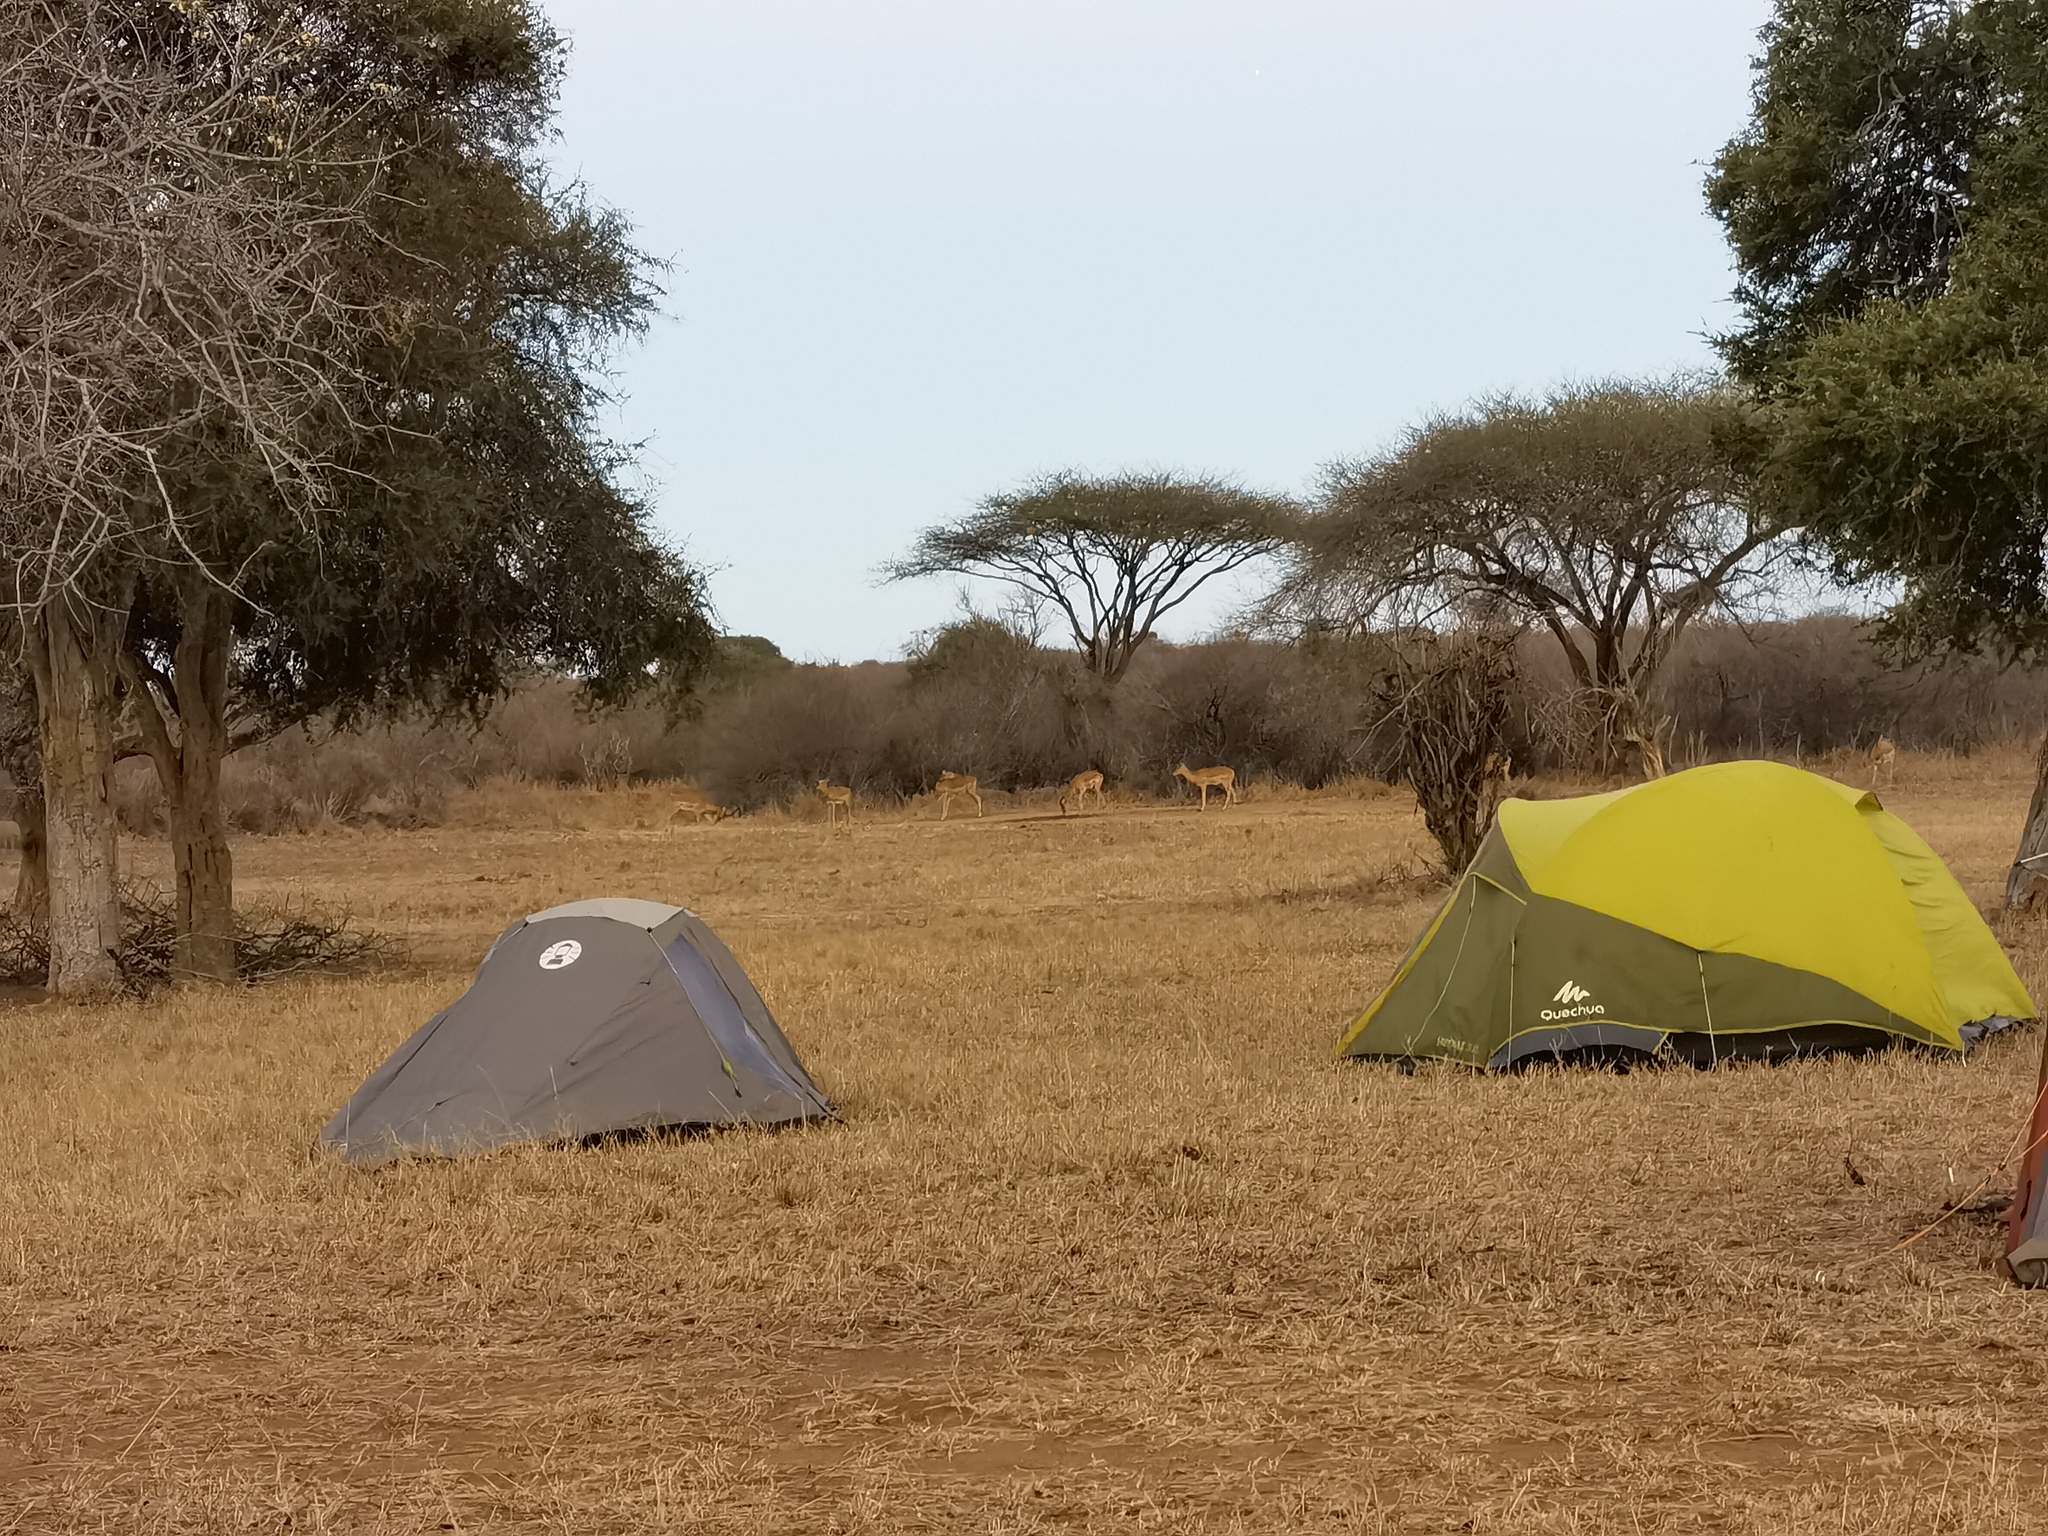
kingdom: Animalia
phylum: Chordata
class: Mammalia
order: Artiodactyla
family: Bovidae
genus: Aepyceros
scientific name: Aepyceros melampus
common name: Impala
